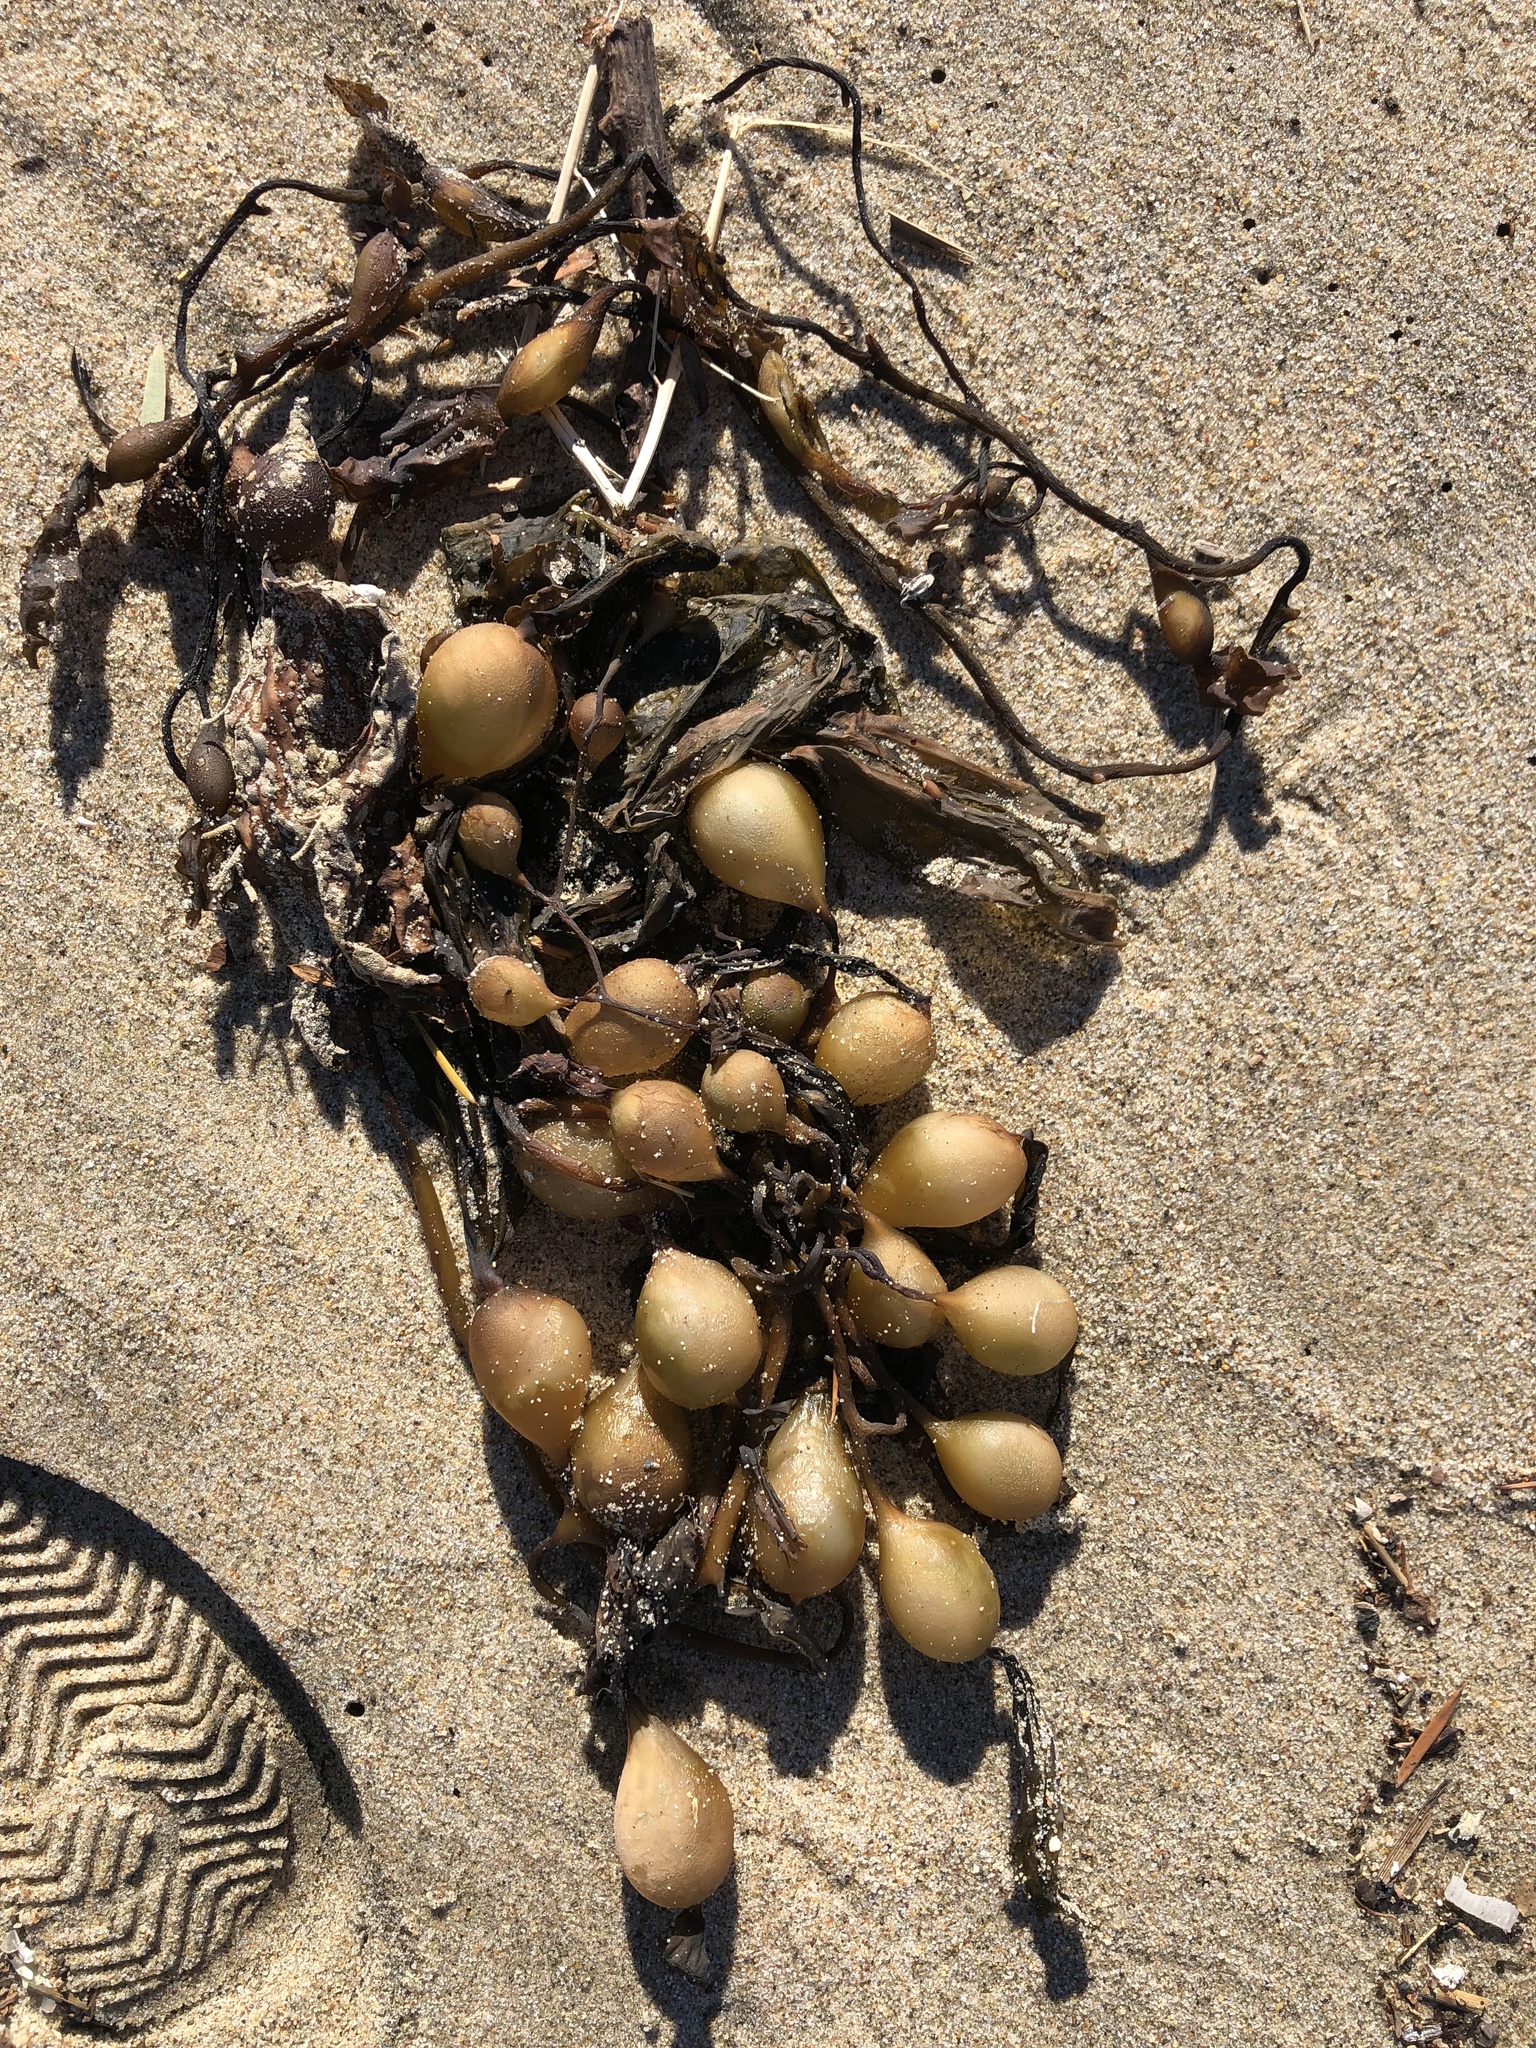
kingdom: Chromista
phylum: Ochrophyta
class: Phaeophyceae
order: Laminariales
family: Laminariaceae
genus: Macrocystis
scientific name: Macrocystis pyrifera
